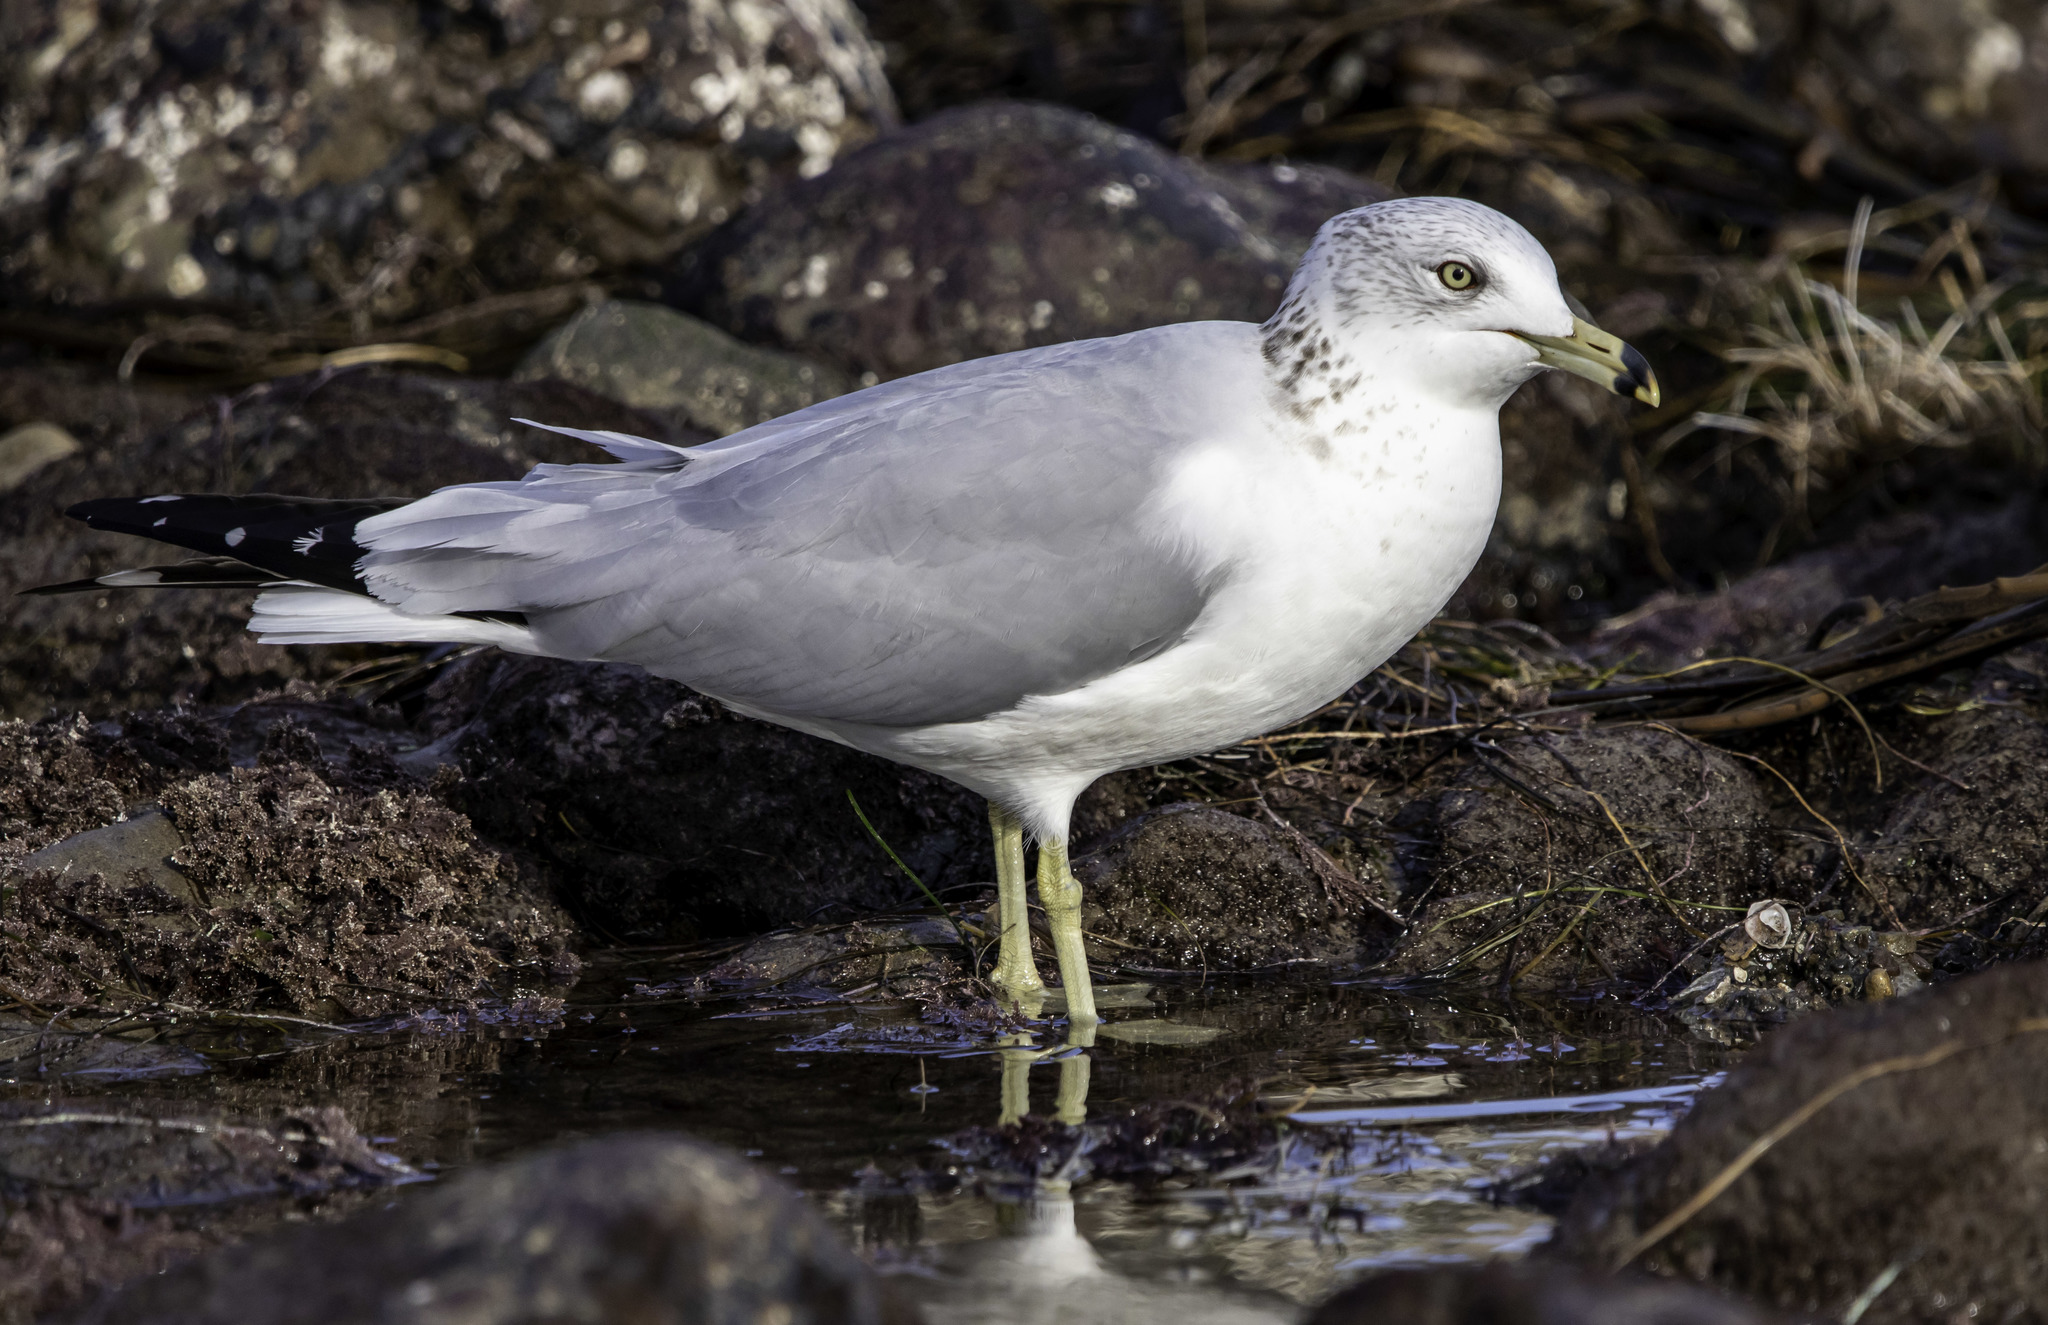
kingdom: Animalia
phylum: Chordata
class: Aves
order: Charadriiformes
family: Laridae
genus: Larus
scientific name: Larus delawarensis
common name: Ring-billed gull
